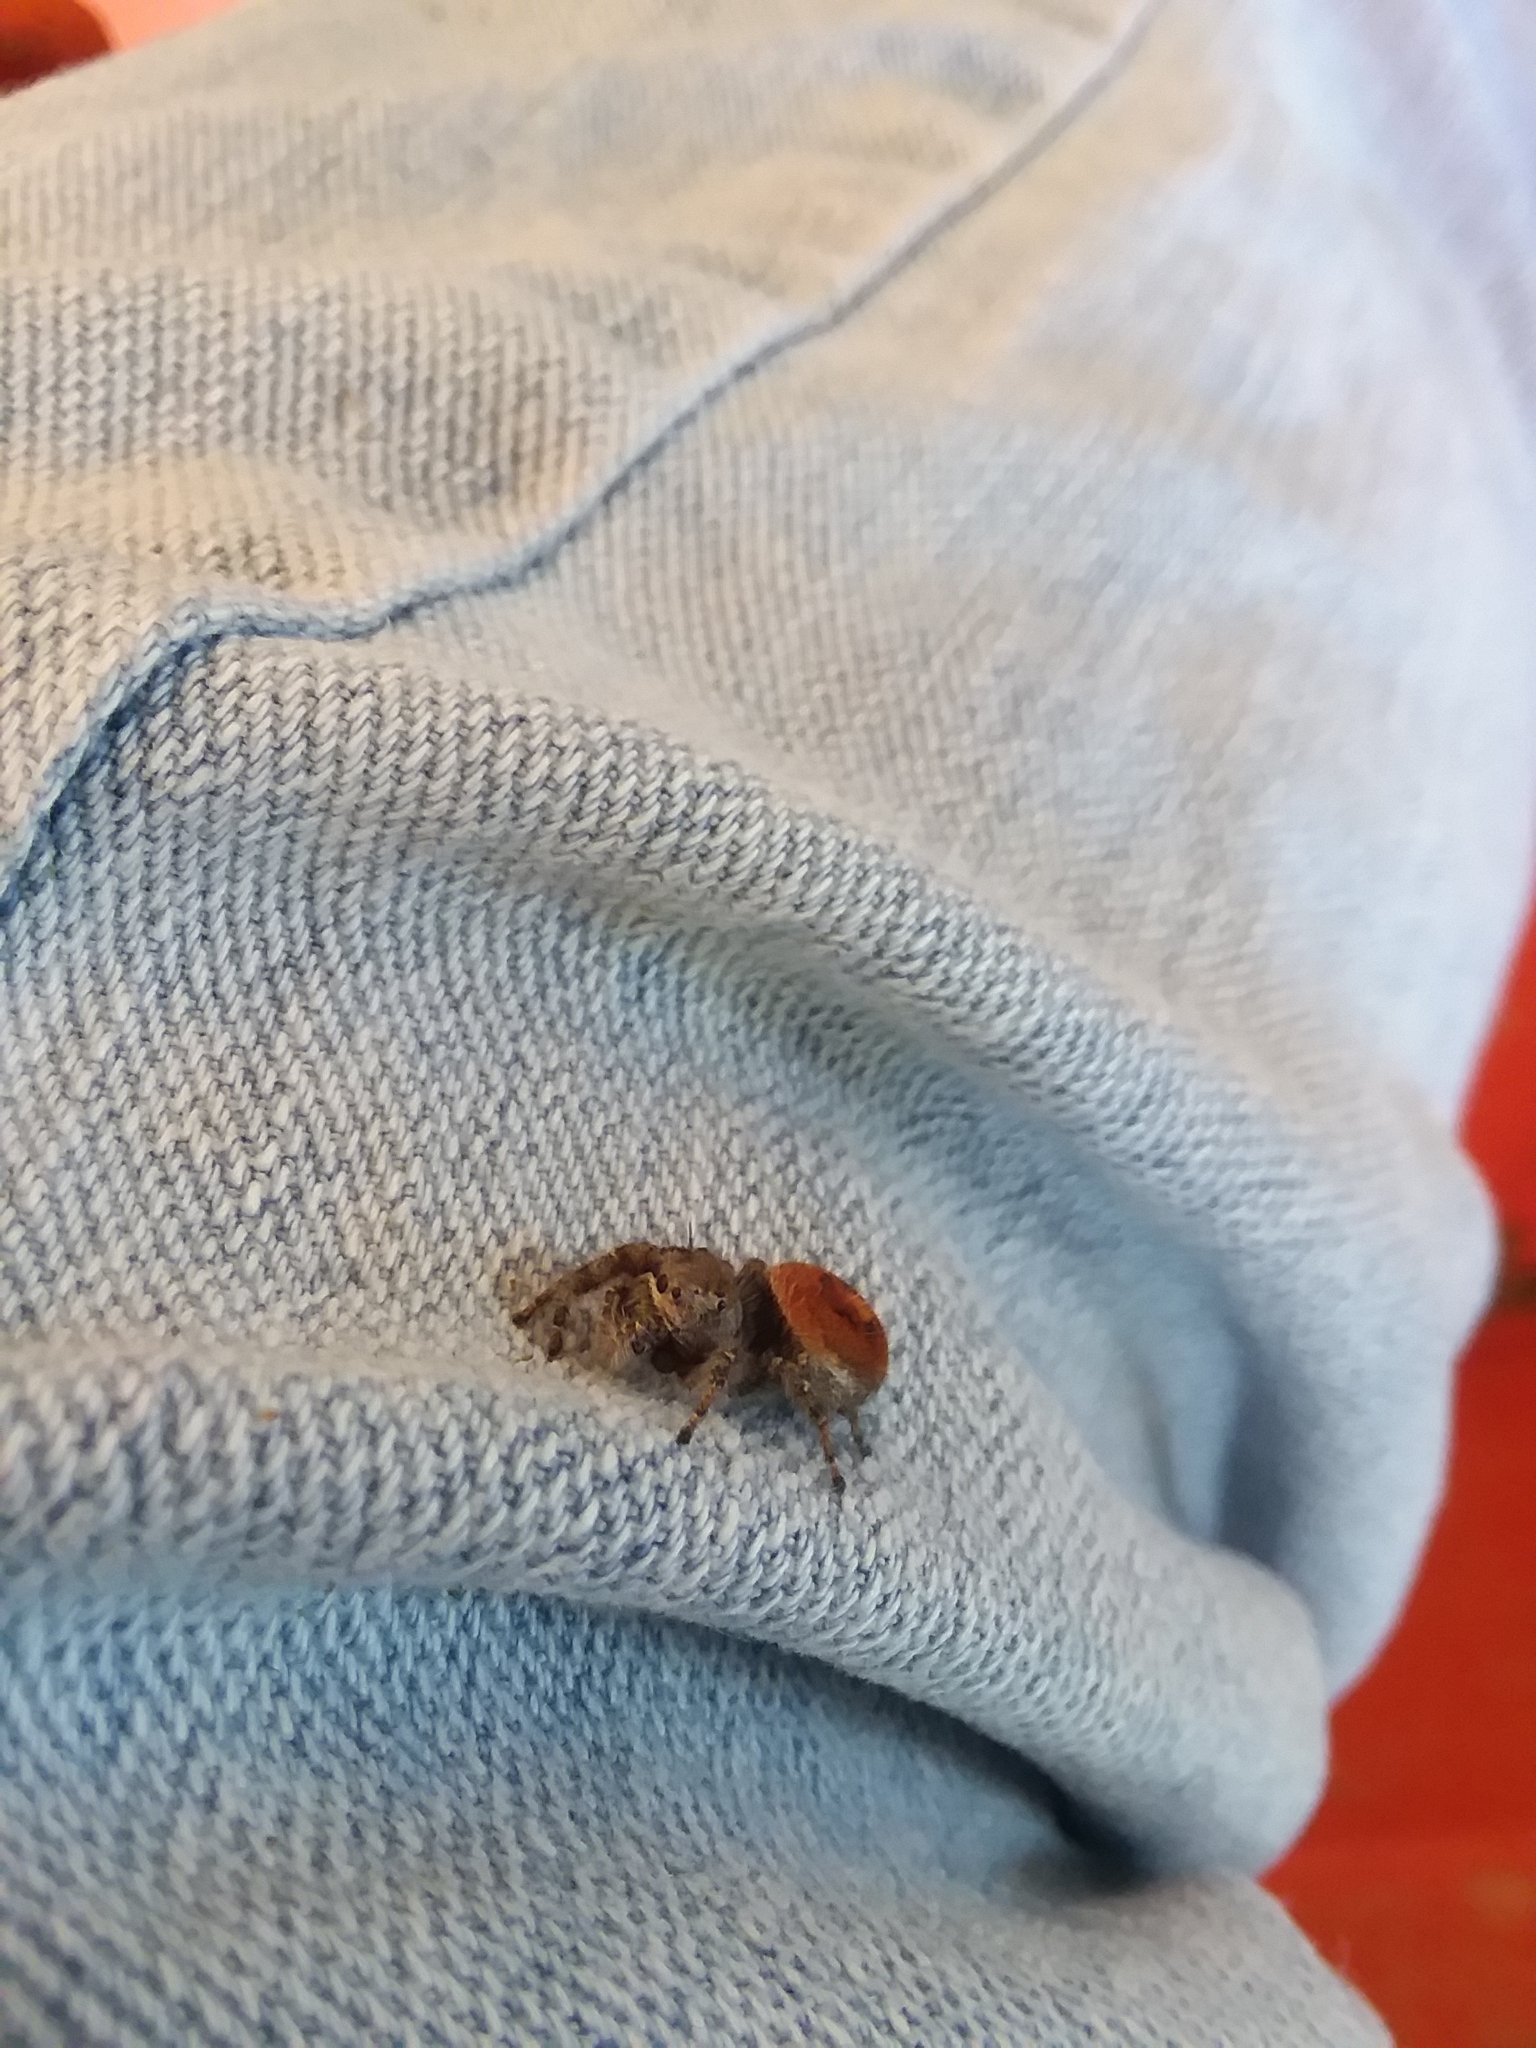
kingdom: Animalia
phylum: Arthropoda
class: Arachnida
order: Araneae
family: Salticidae
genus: Phidippus
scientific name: Phidippus princeps
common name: Grayish jumping spider
